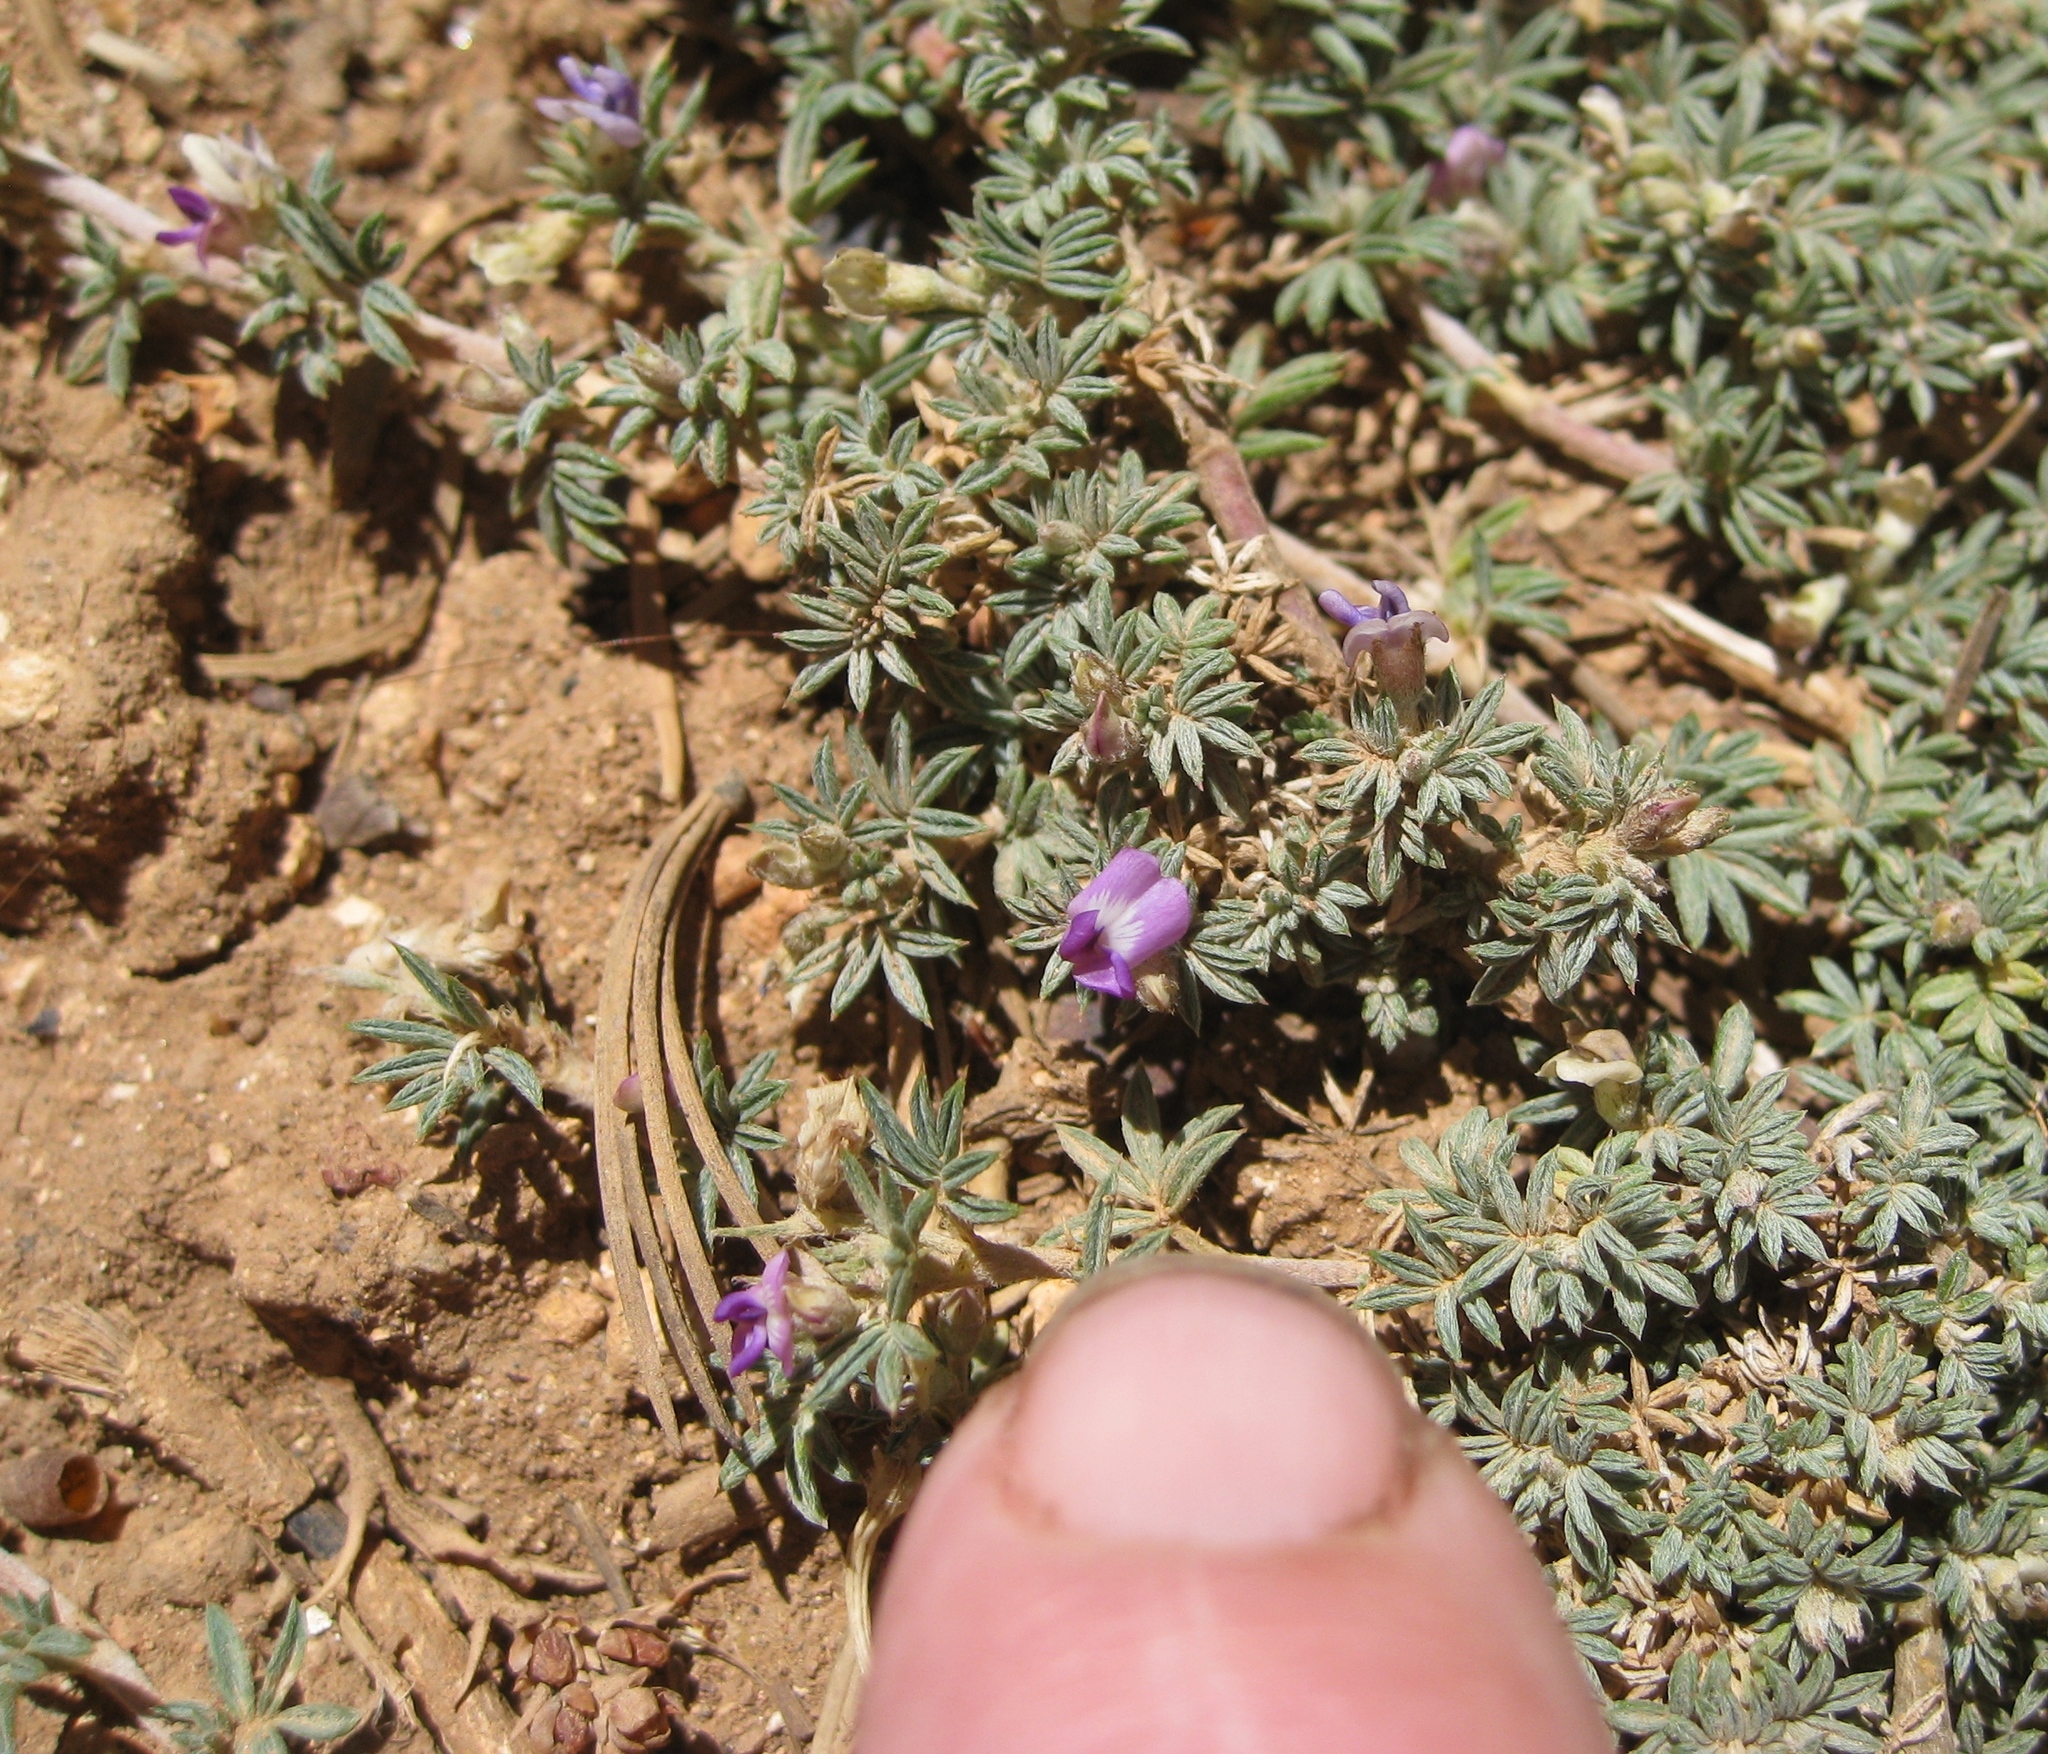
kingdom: Plantae
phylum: Tracheophyta
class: Magnoliopsida
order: Fabales
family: Fabaceae
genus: Astragalus
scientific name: Astragalus kentrophyta
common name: Prickly milk-vetch
